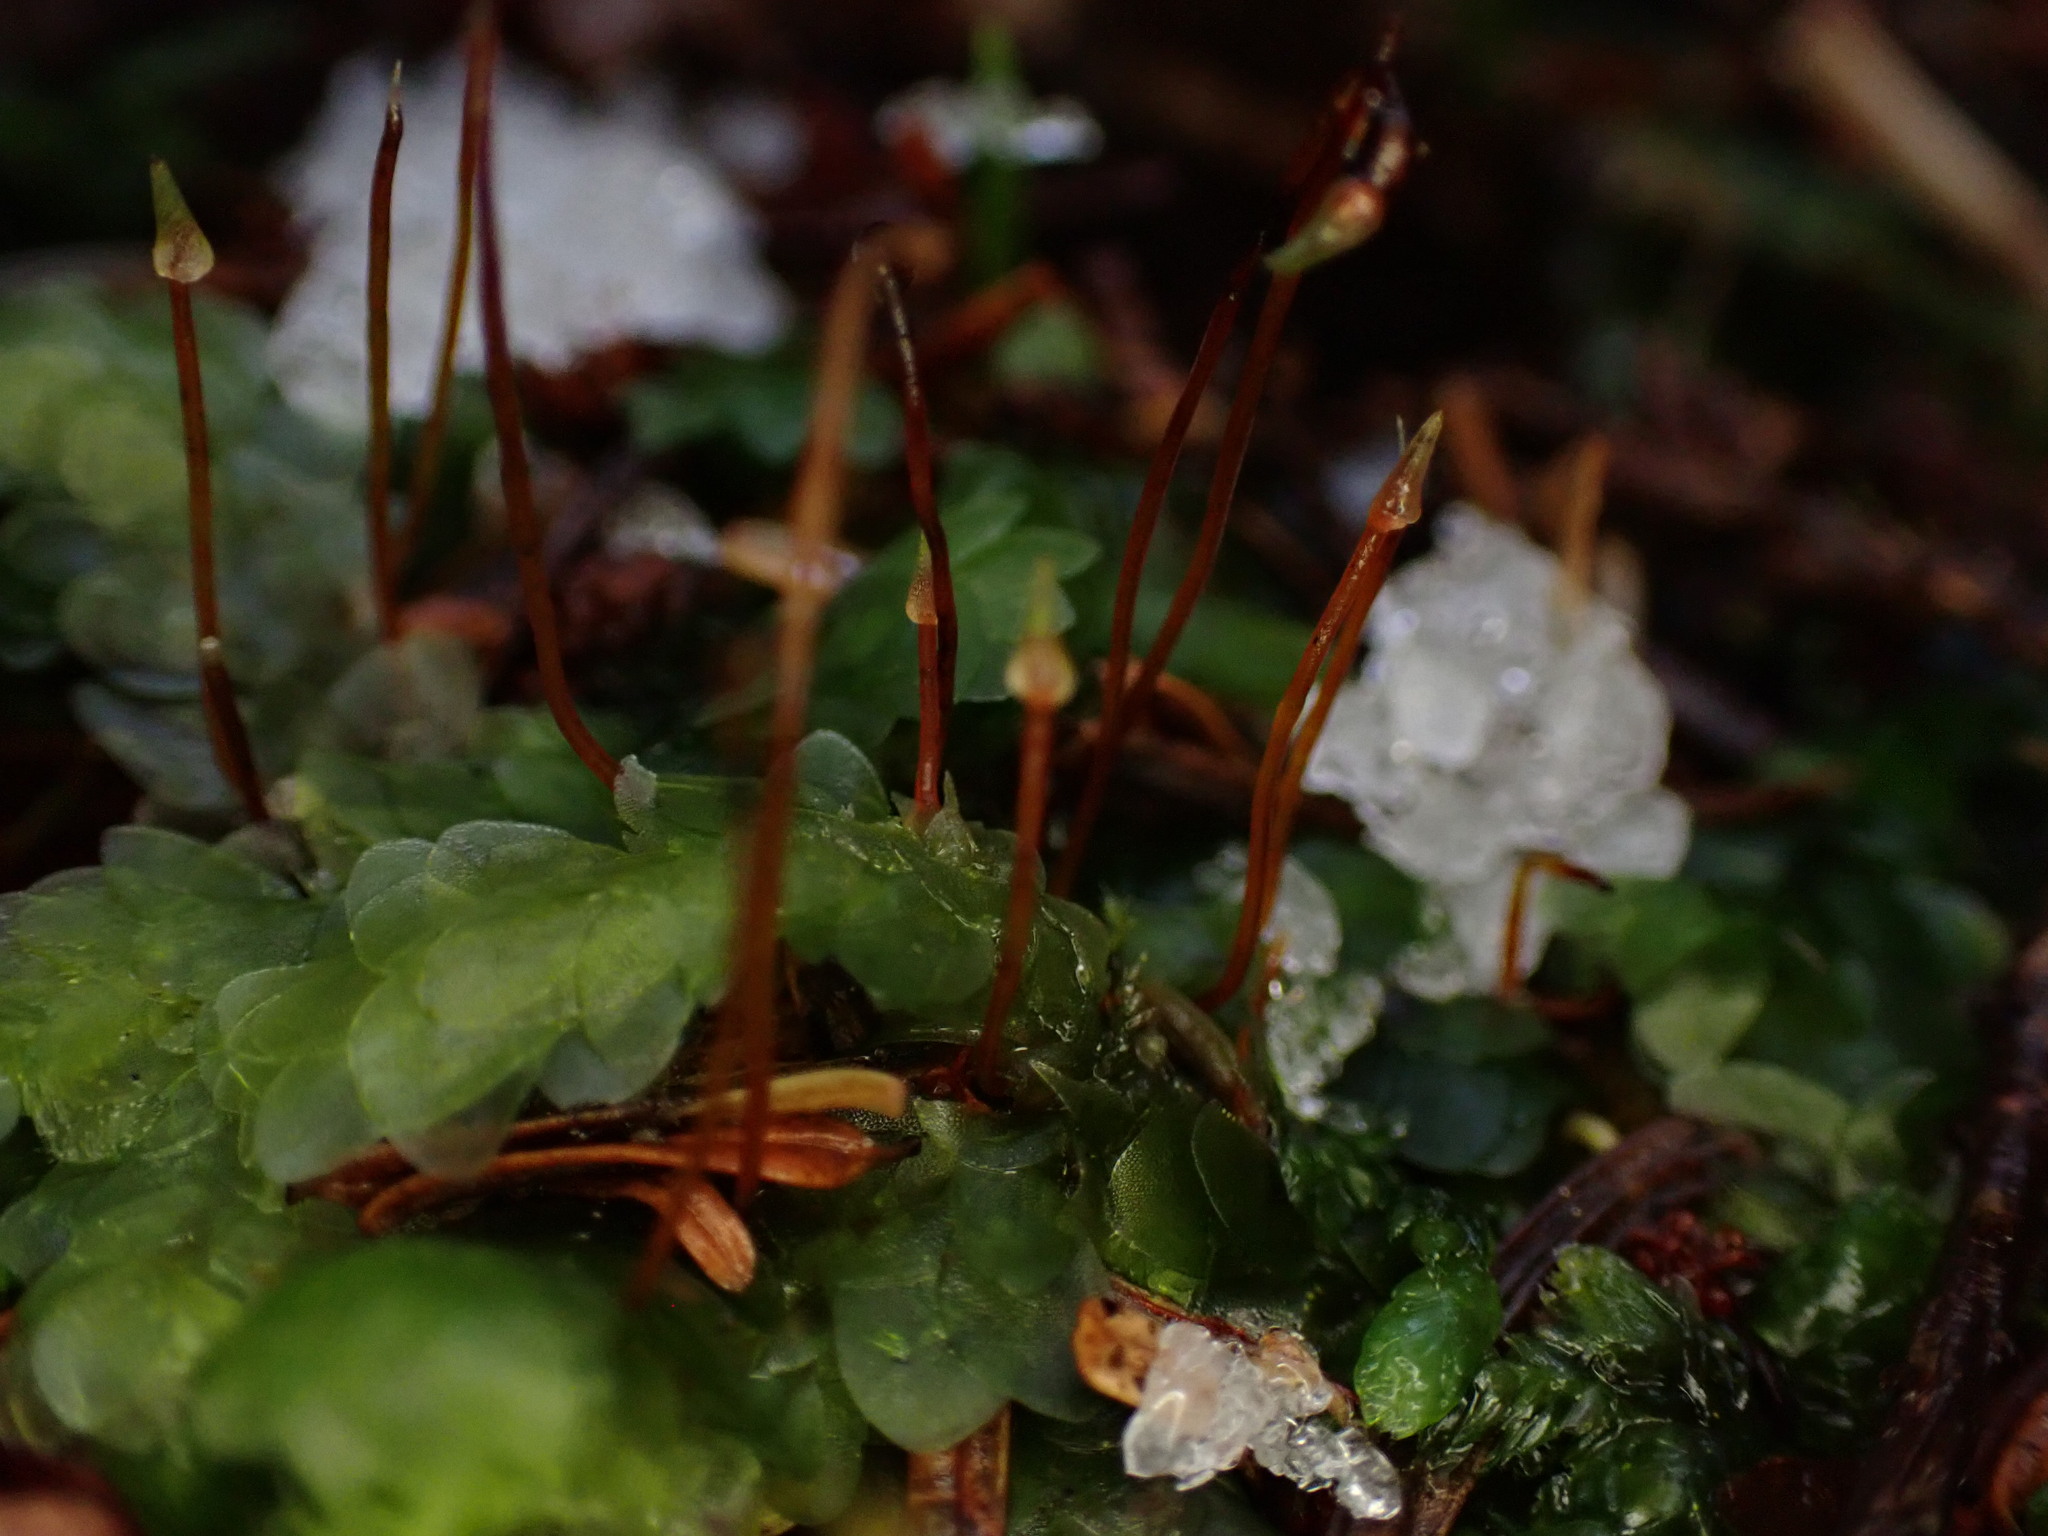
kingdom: Plantae
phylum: Bryophyta
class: Bryopsida
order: Hookeriales
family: Hookeriaceae
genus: Hookeria
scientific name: Hookeria lucens
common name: Shining hookeria
